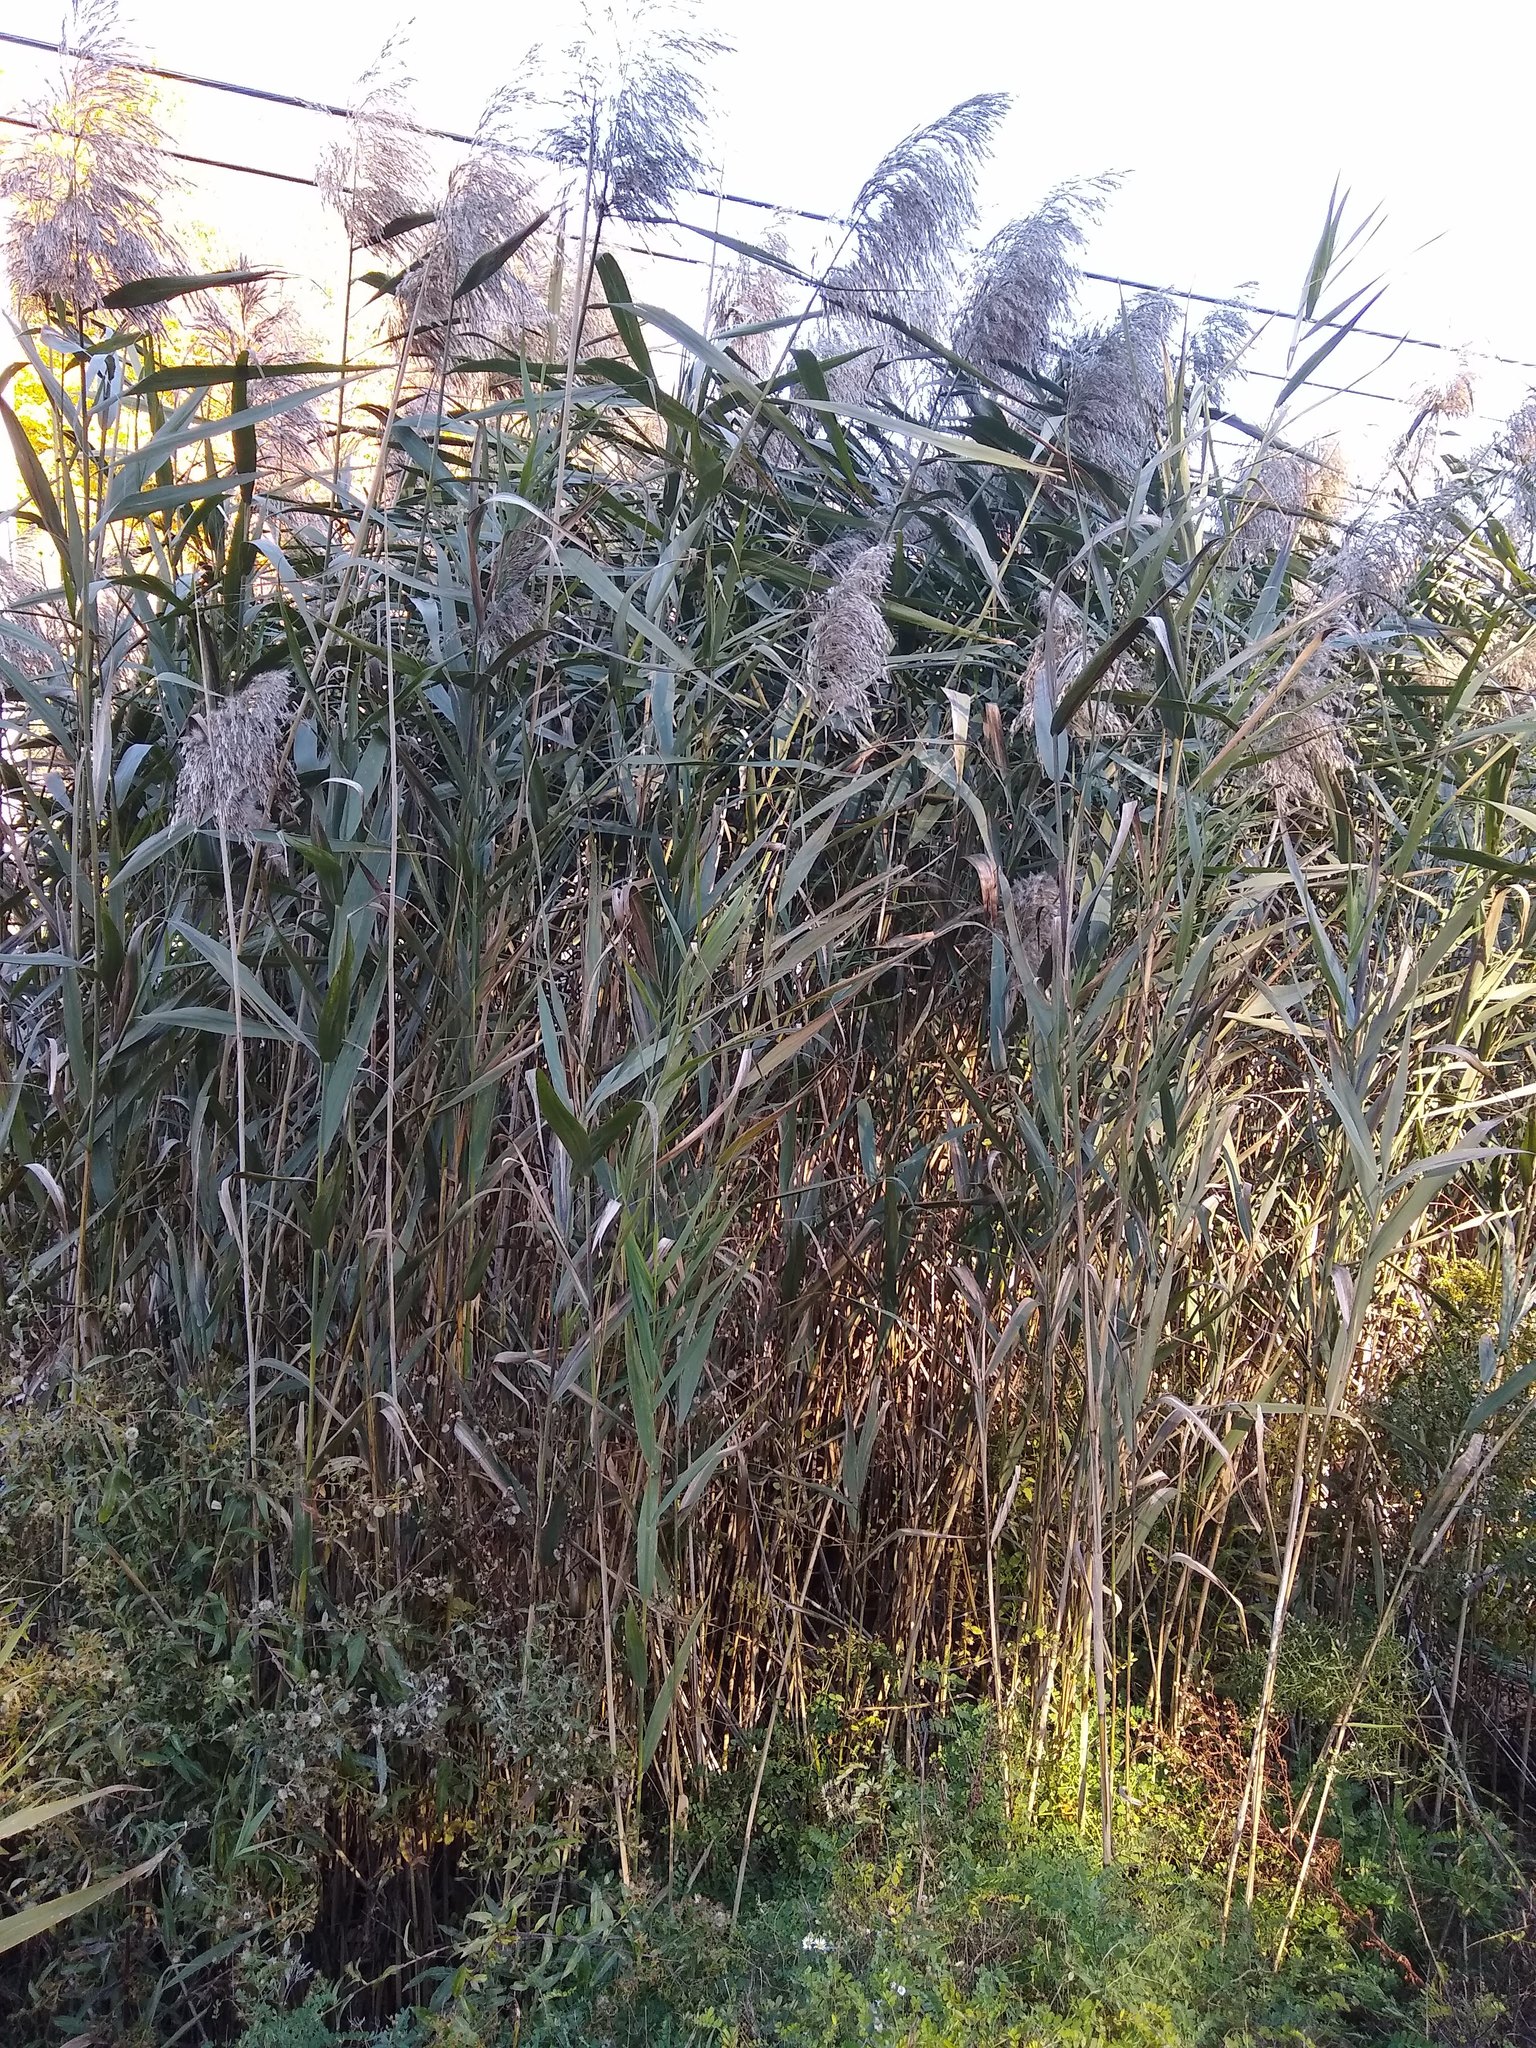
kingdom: Plantae
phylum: Tracheophyta
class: Liliopsida
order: Poales
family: Poaceae
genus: Phragmites
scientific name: Phragmites australis
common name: Common reed
